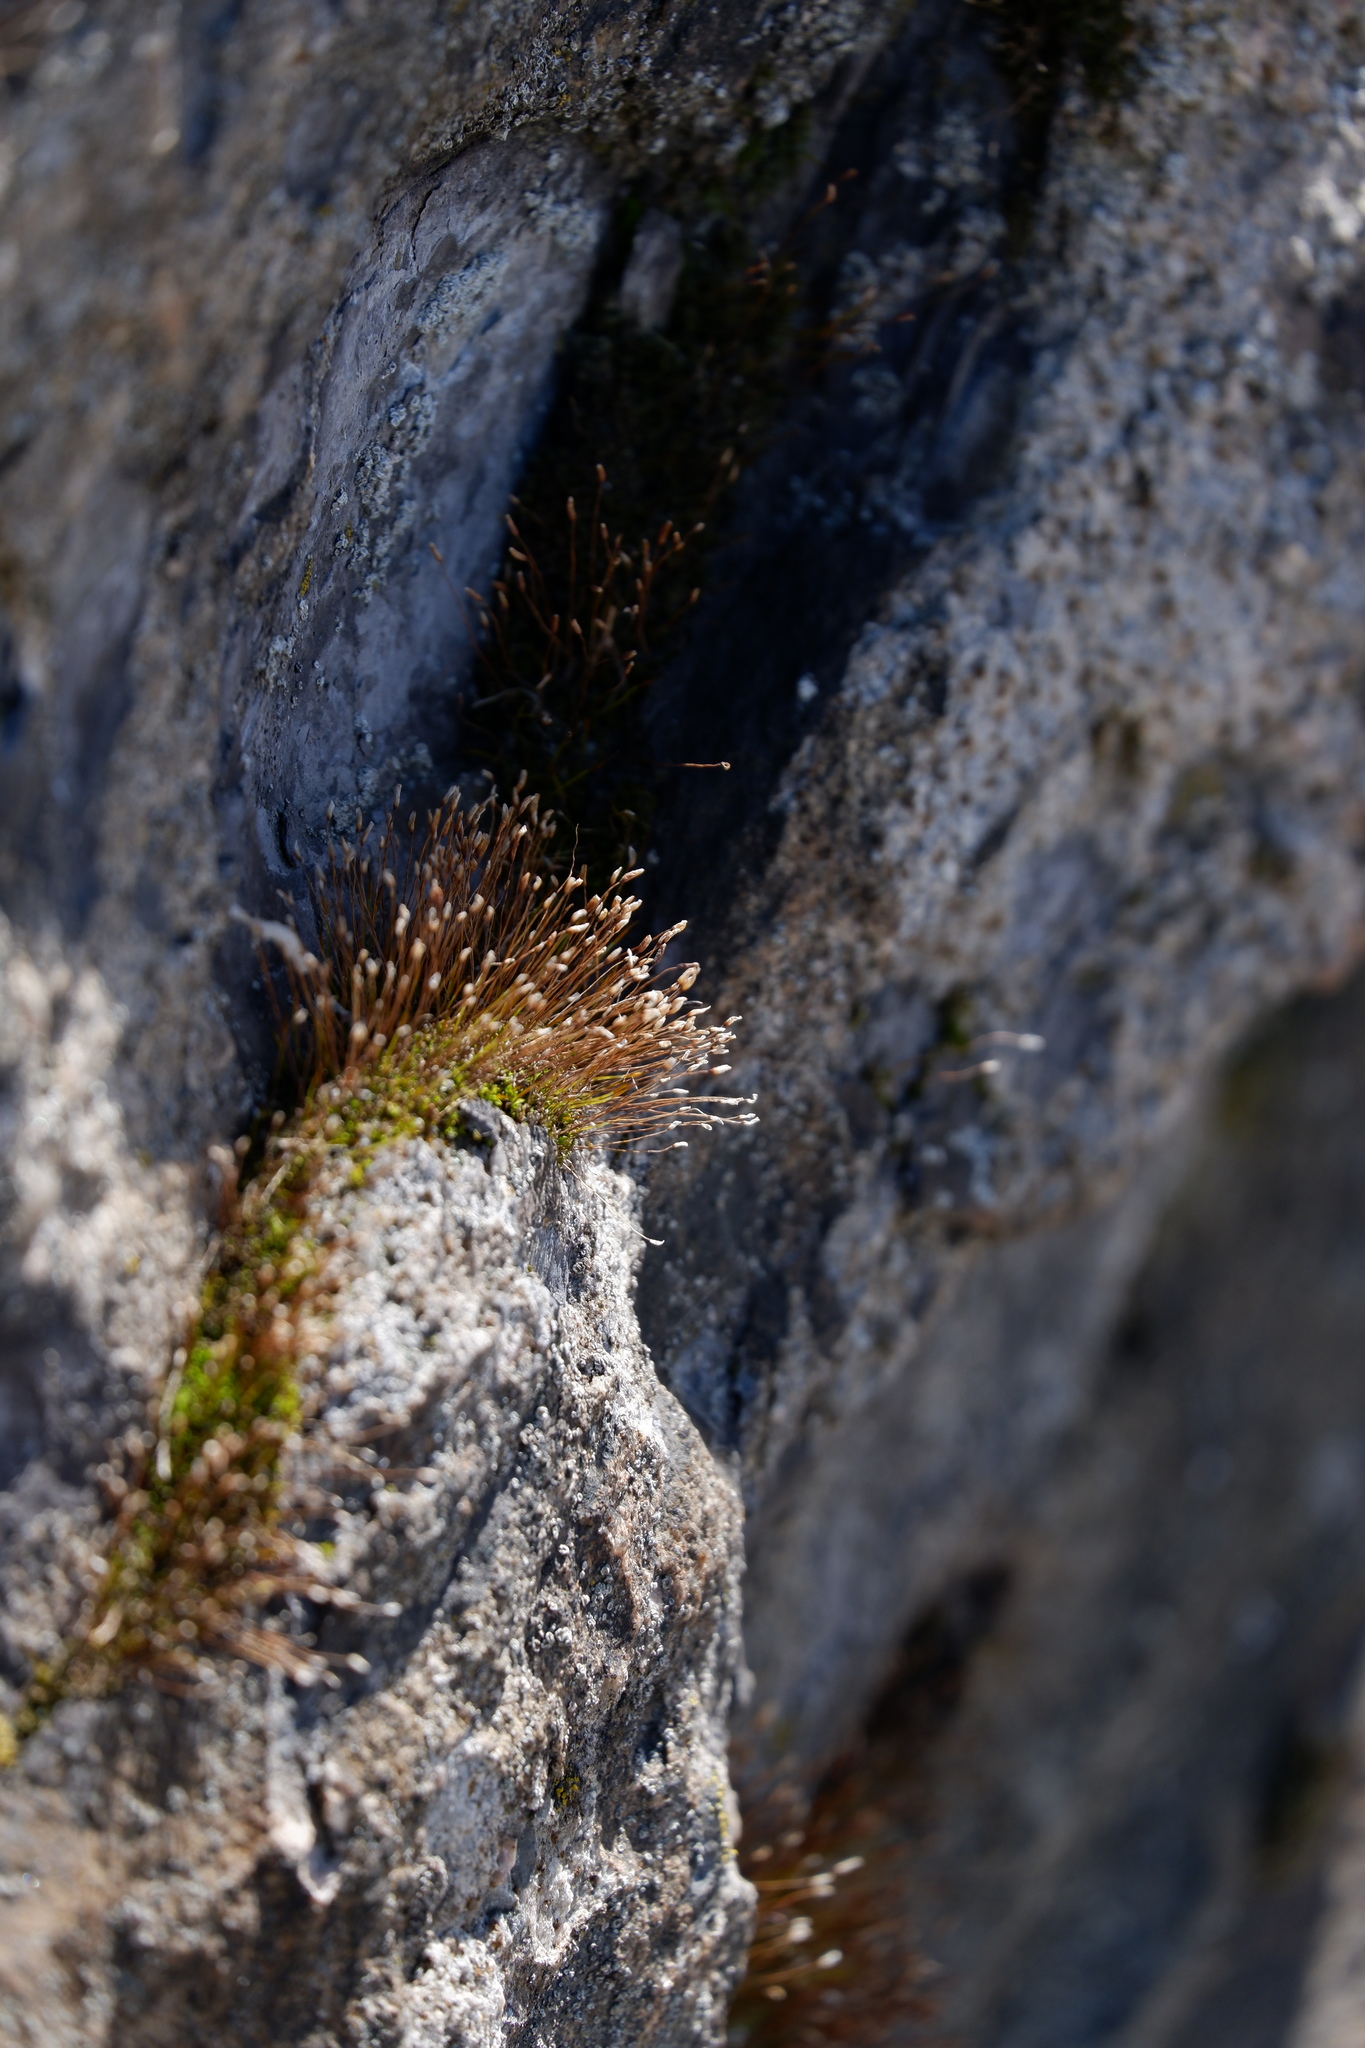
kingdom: Plantae
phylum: Bryophyta
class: Bryopsida
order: Pottiales
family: Pottiaceae
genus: Tortula
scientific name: Tortula muralis
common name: Wall screw-moss
